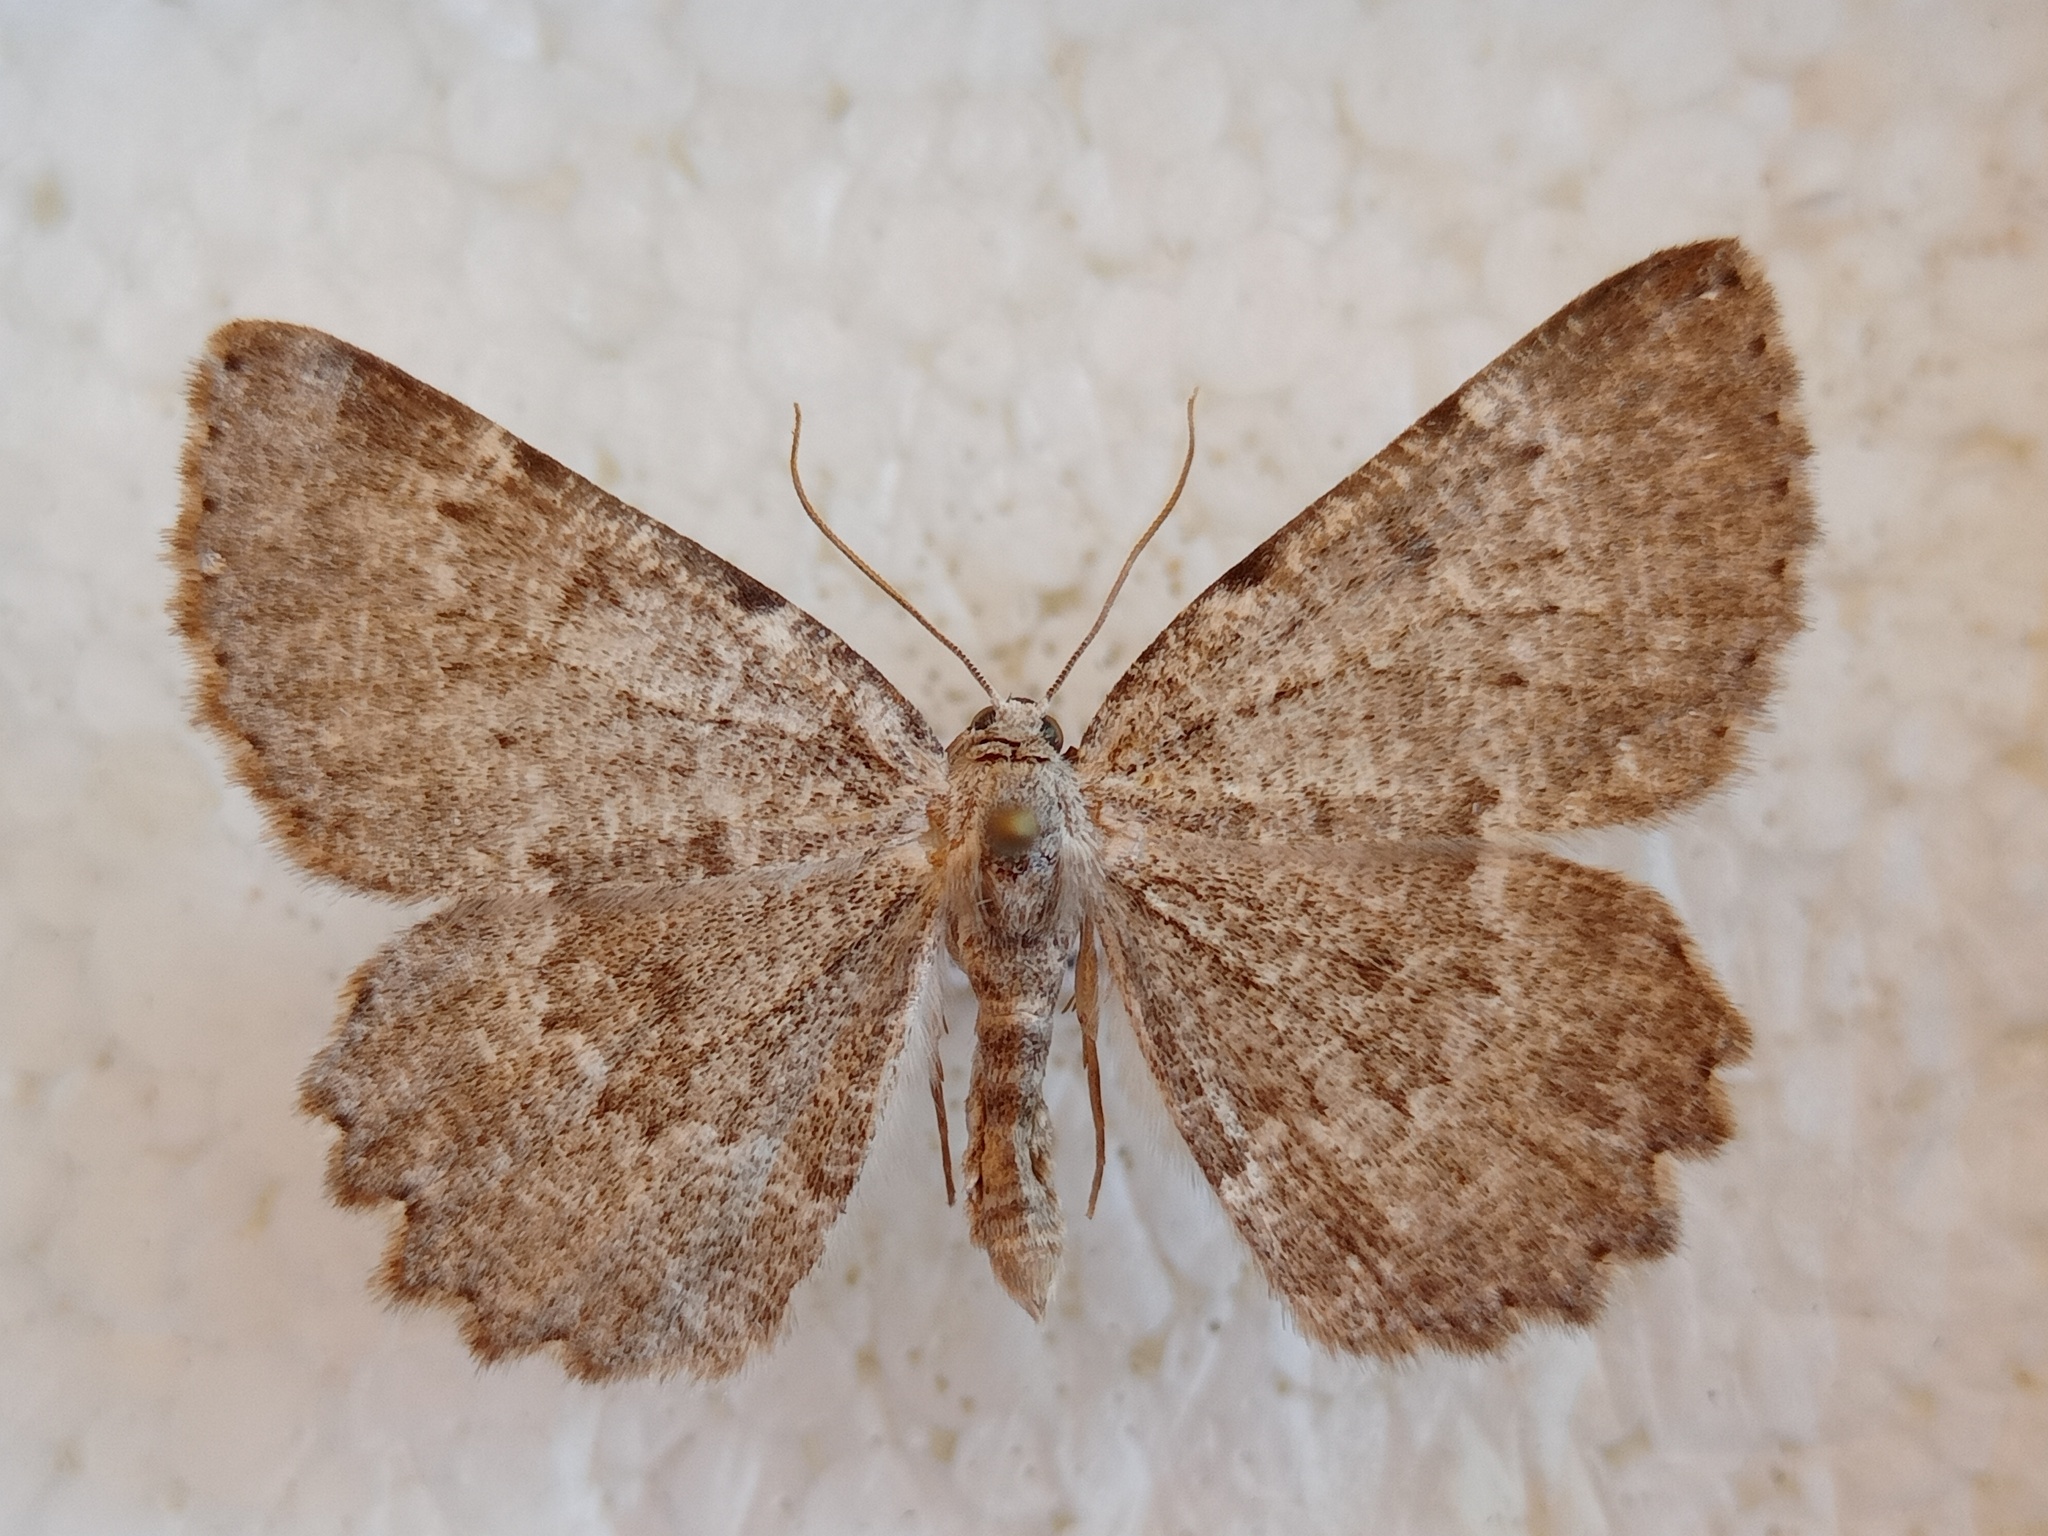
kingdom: Animalia
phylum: Arthropoda
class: Insecta
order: Lepidoptera
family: Geometridae
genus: Charissa
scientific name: Charissa pullata
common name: Limestone annulet
